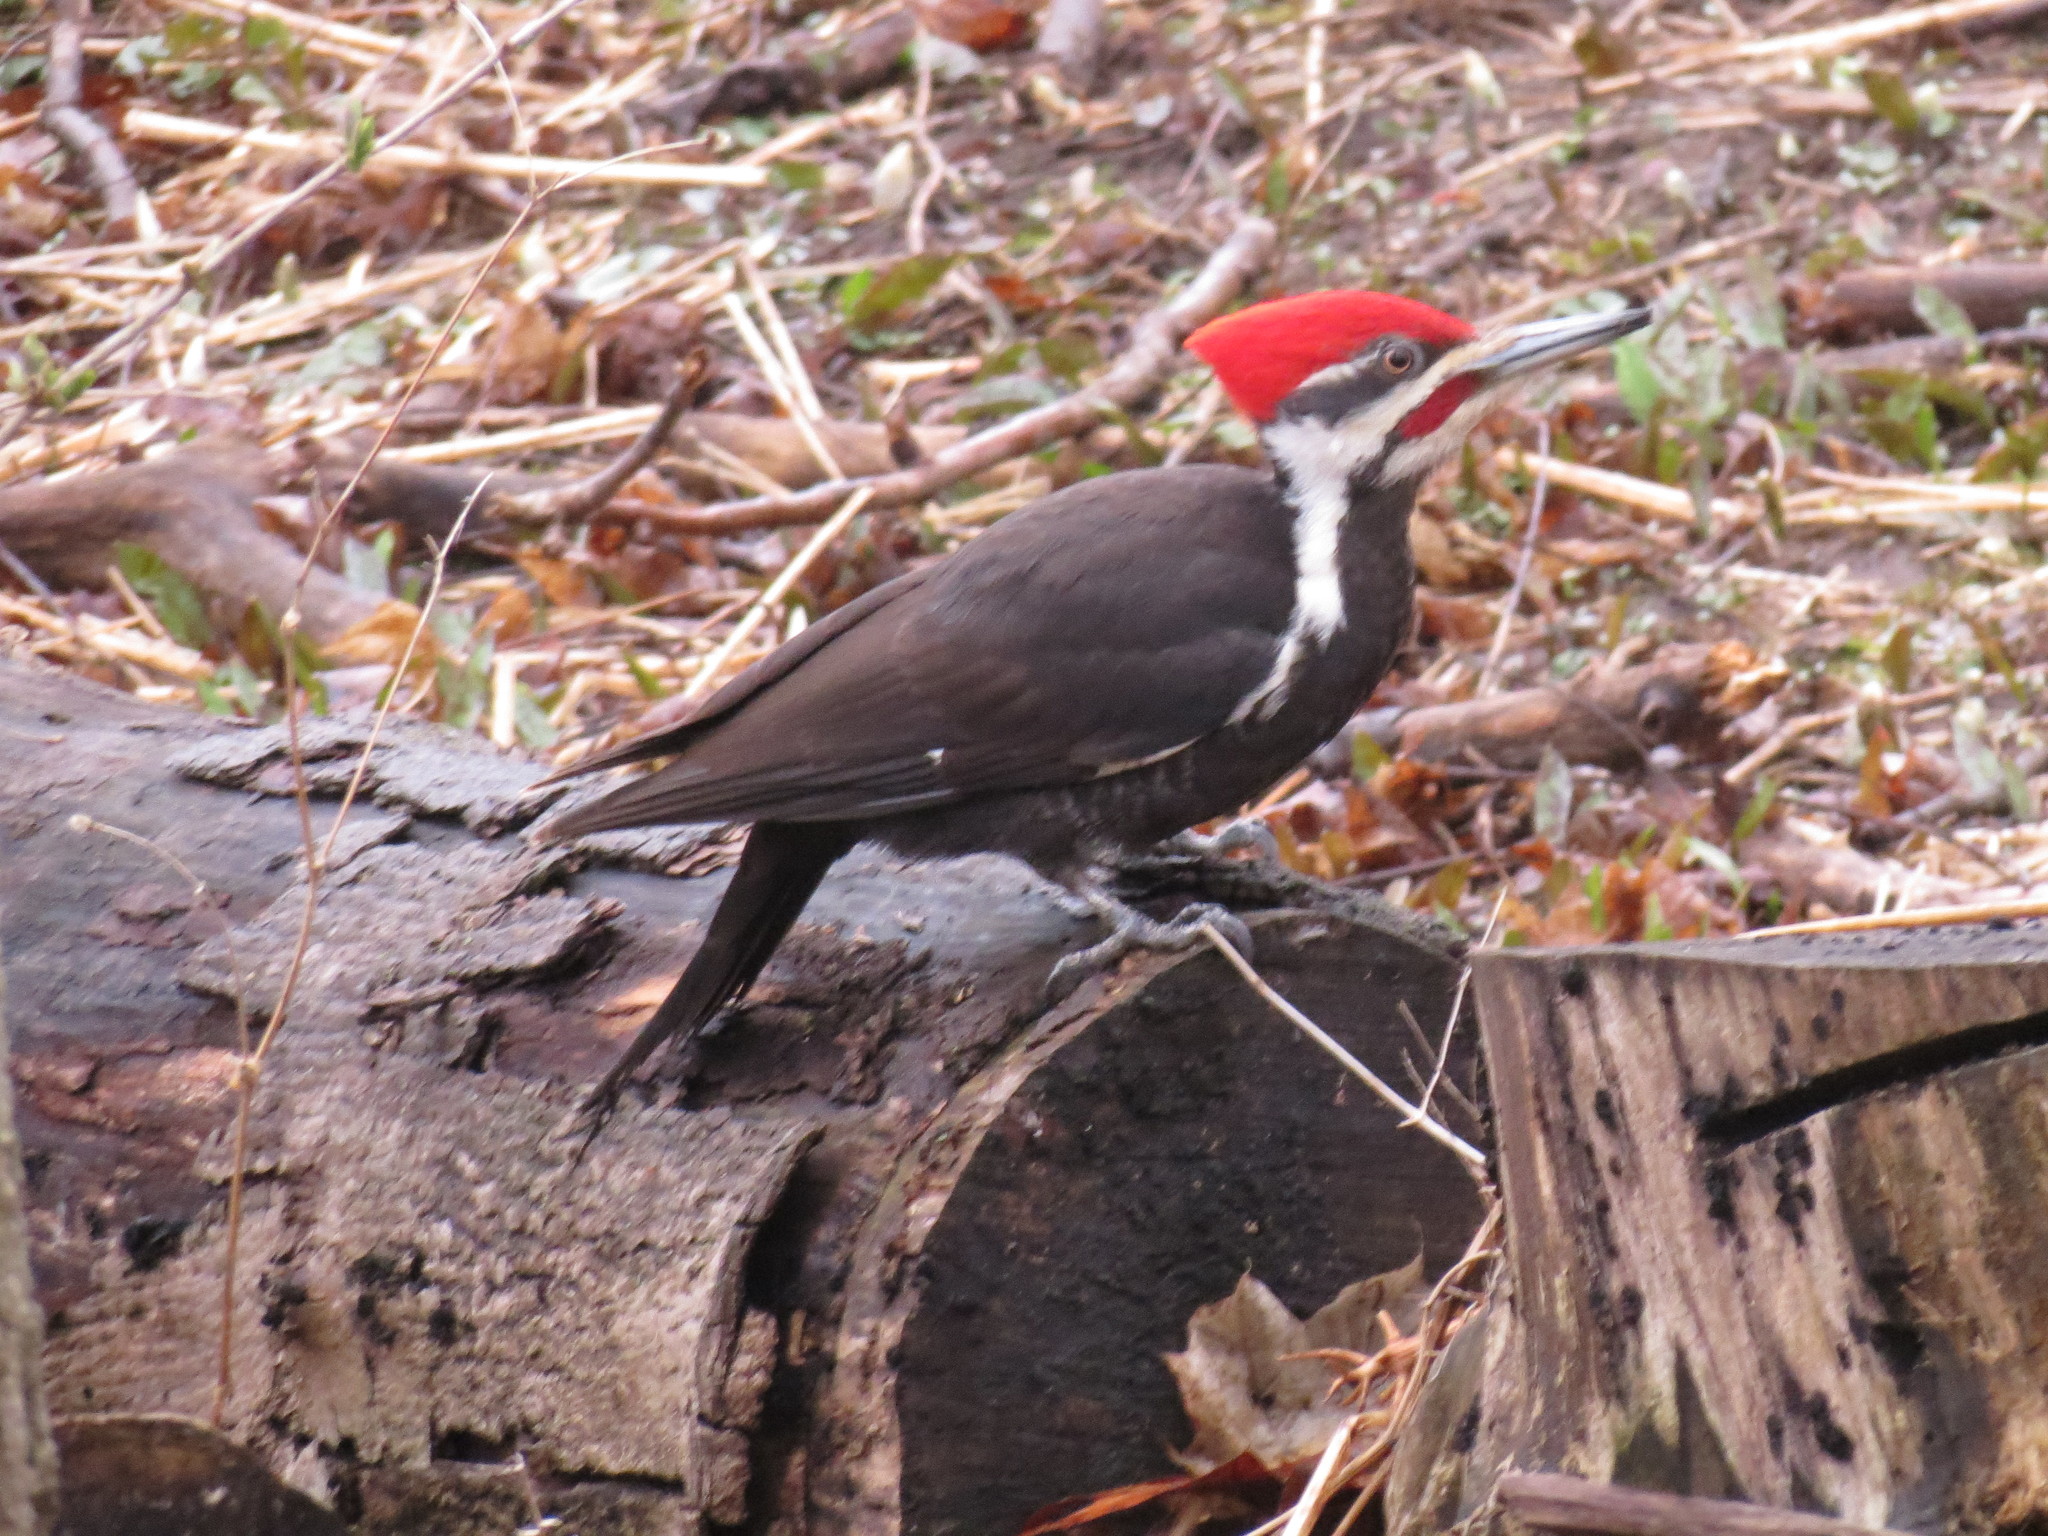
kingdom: Animalia
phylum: Chordata
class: Aves
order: Piciformes
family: Picidae
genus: Dryocopus
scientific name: Dryocopus pileatus
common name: Pileated woodpecker
